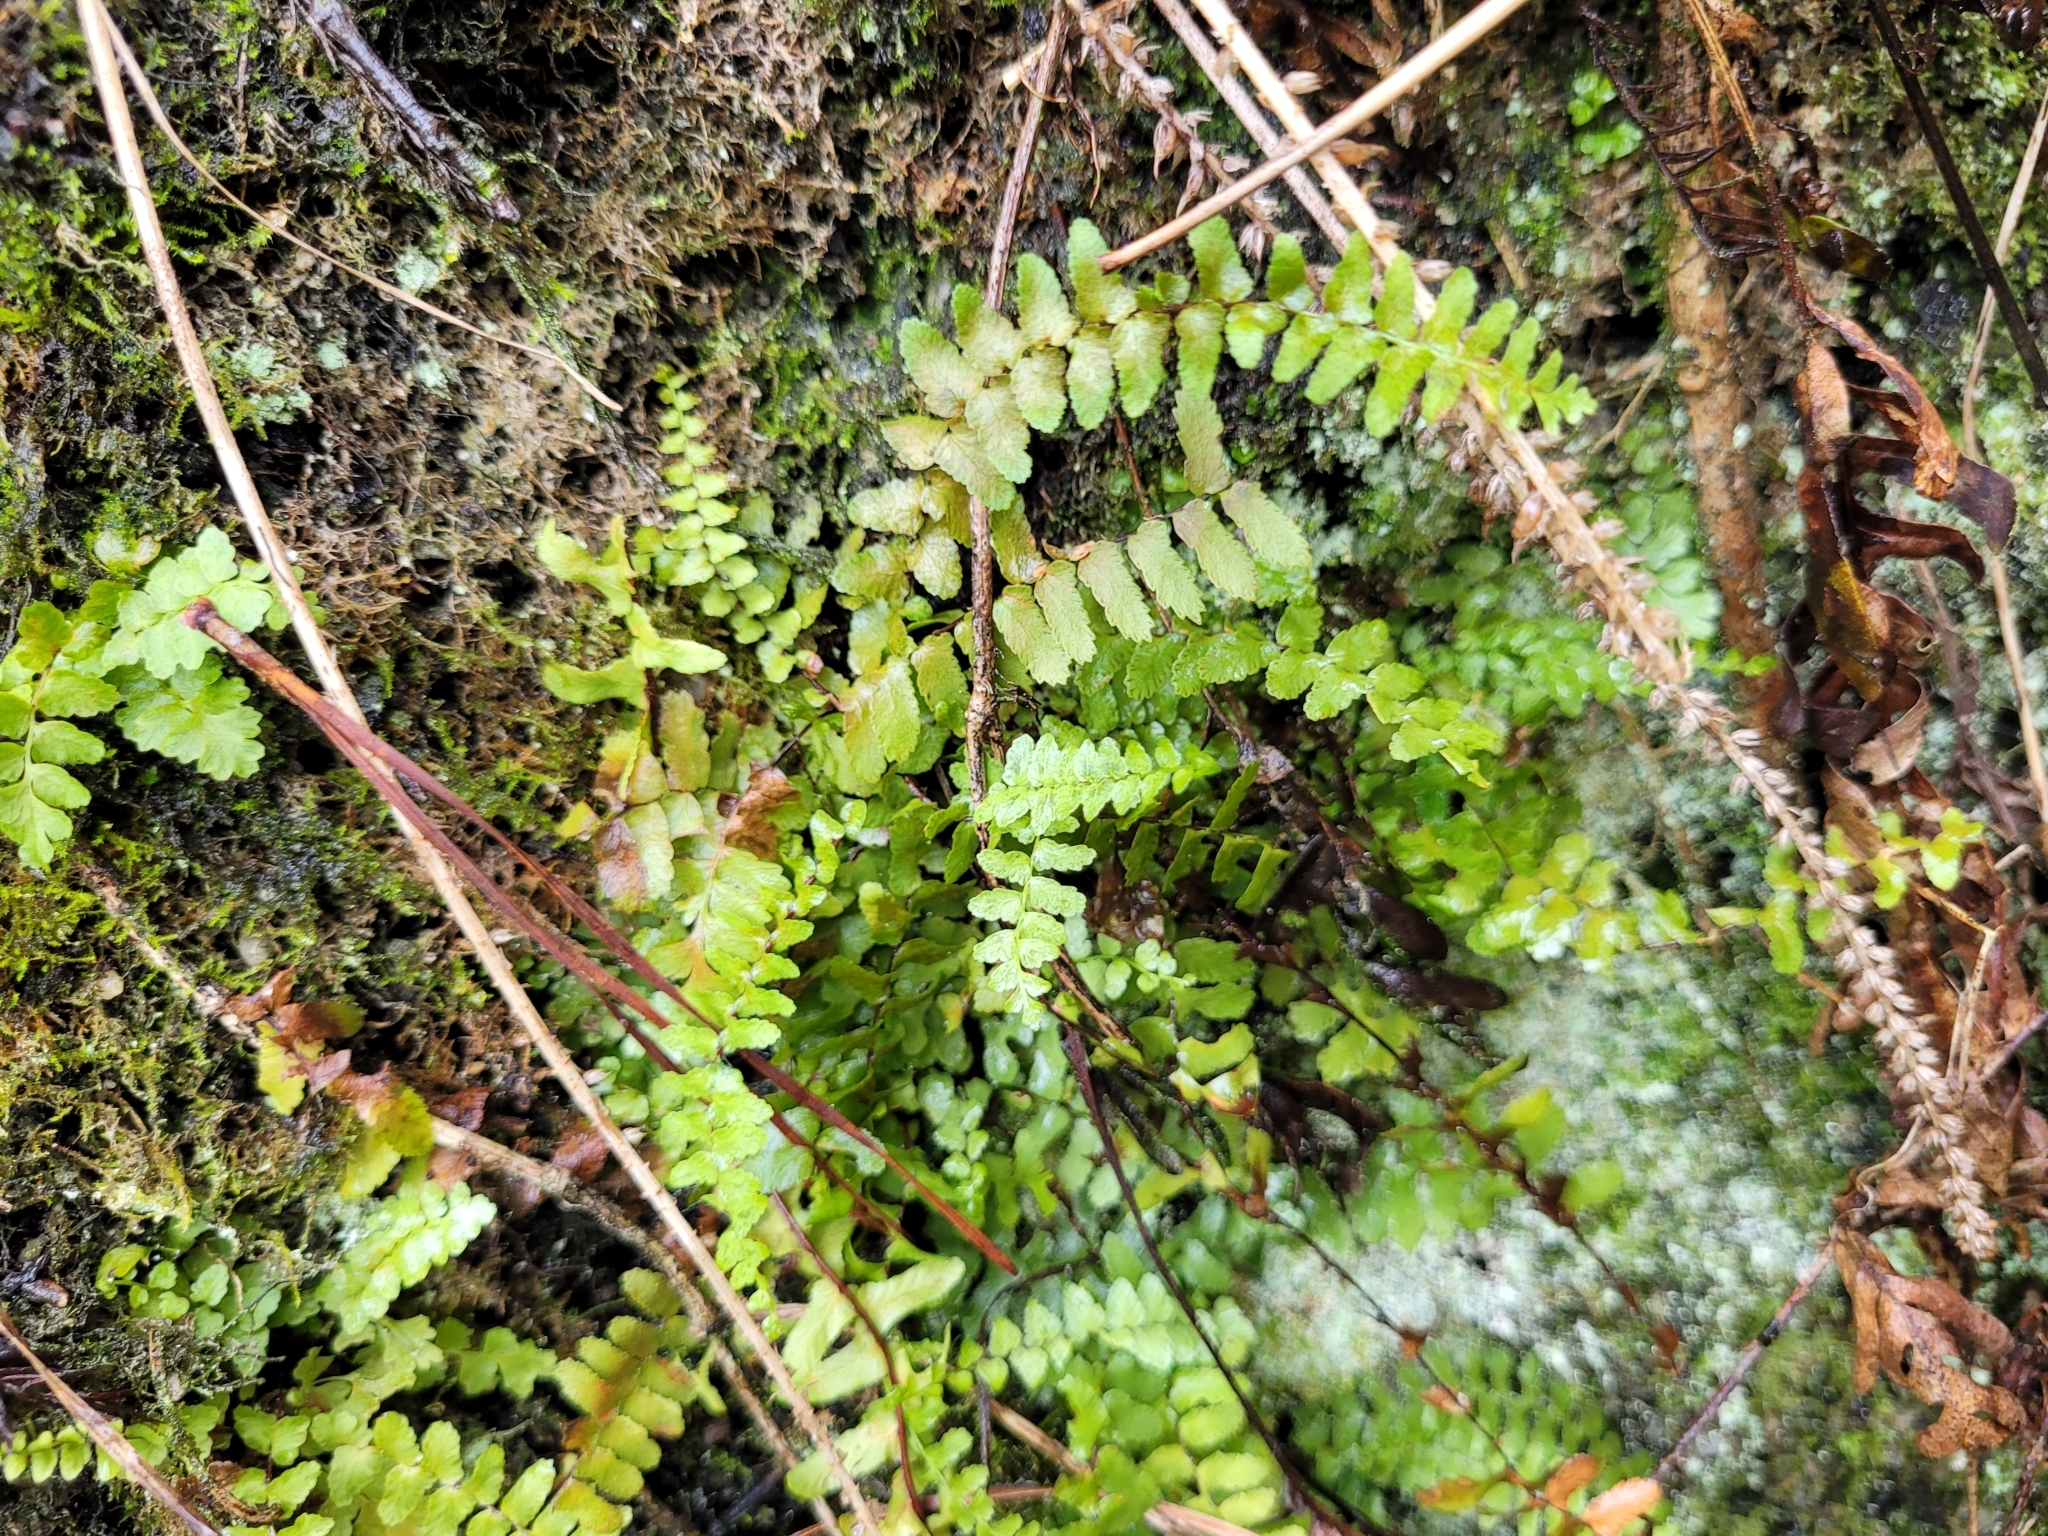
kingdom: Plantae
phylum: Tracheophyta
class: Polypodiopsida
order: Polypodiales
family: Aspleniaceae
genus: Asplenium
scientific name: Asplenium platyneuron
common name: Ebony spleenwort
